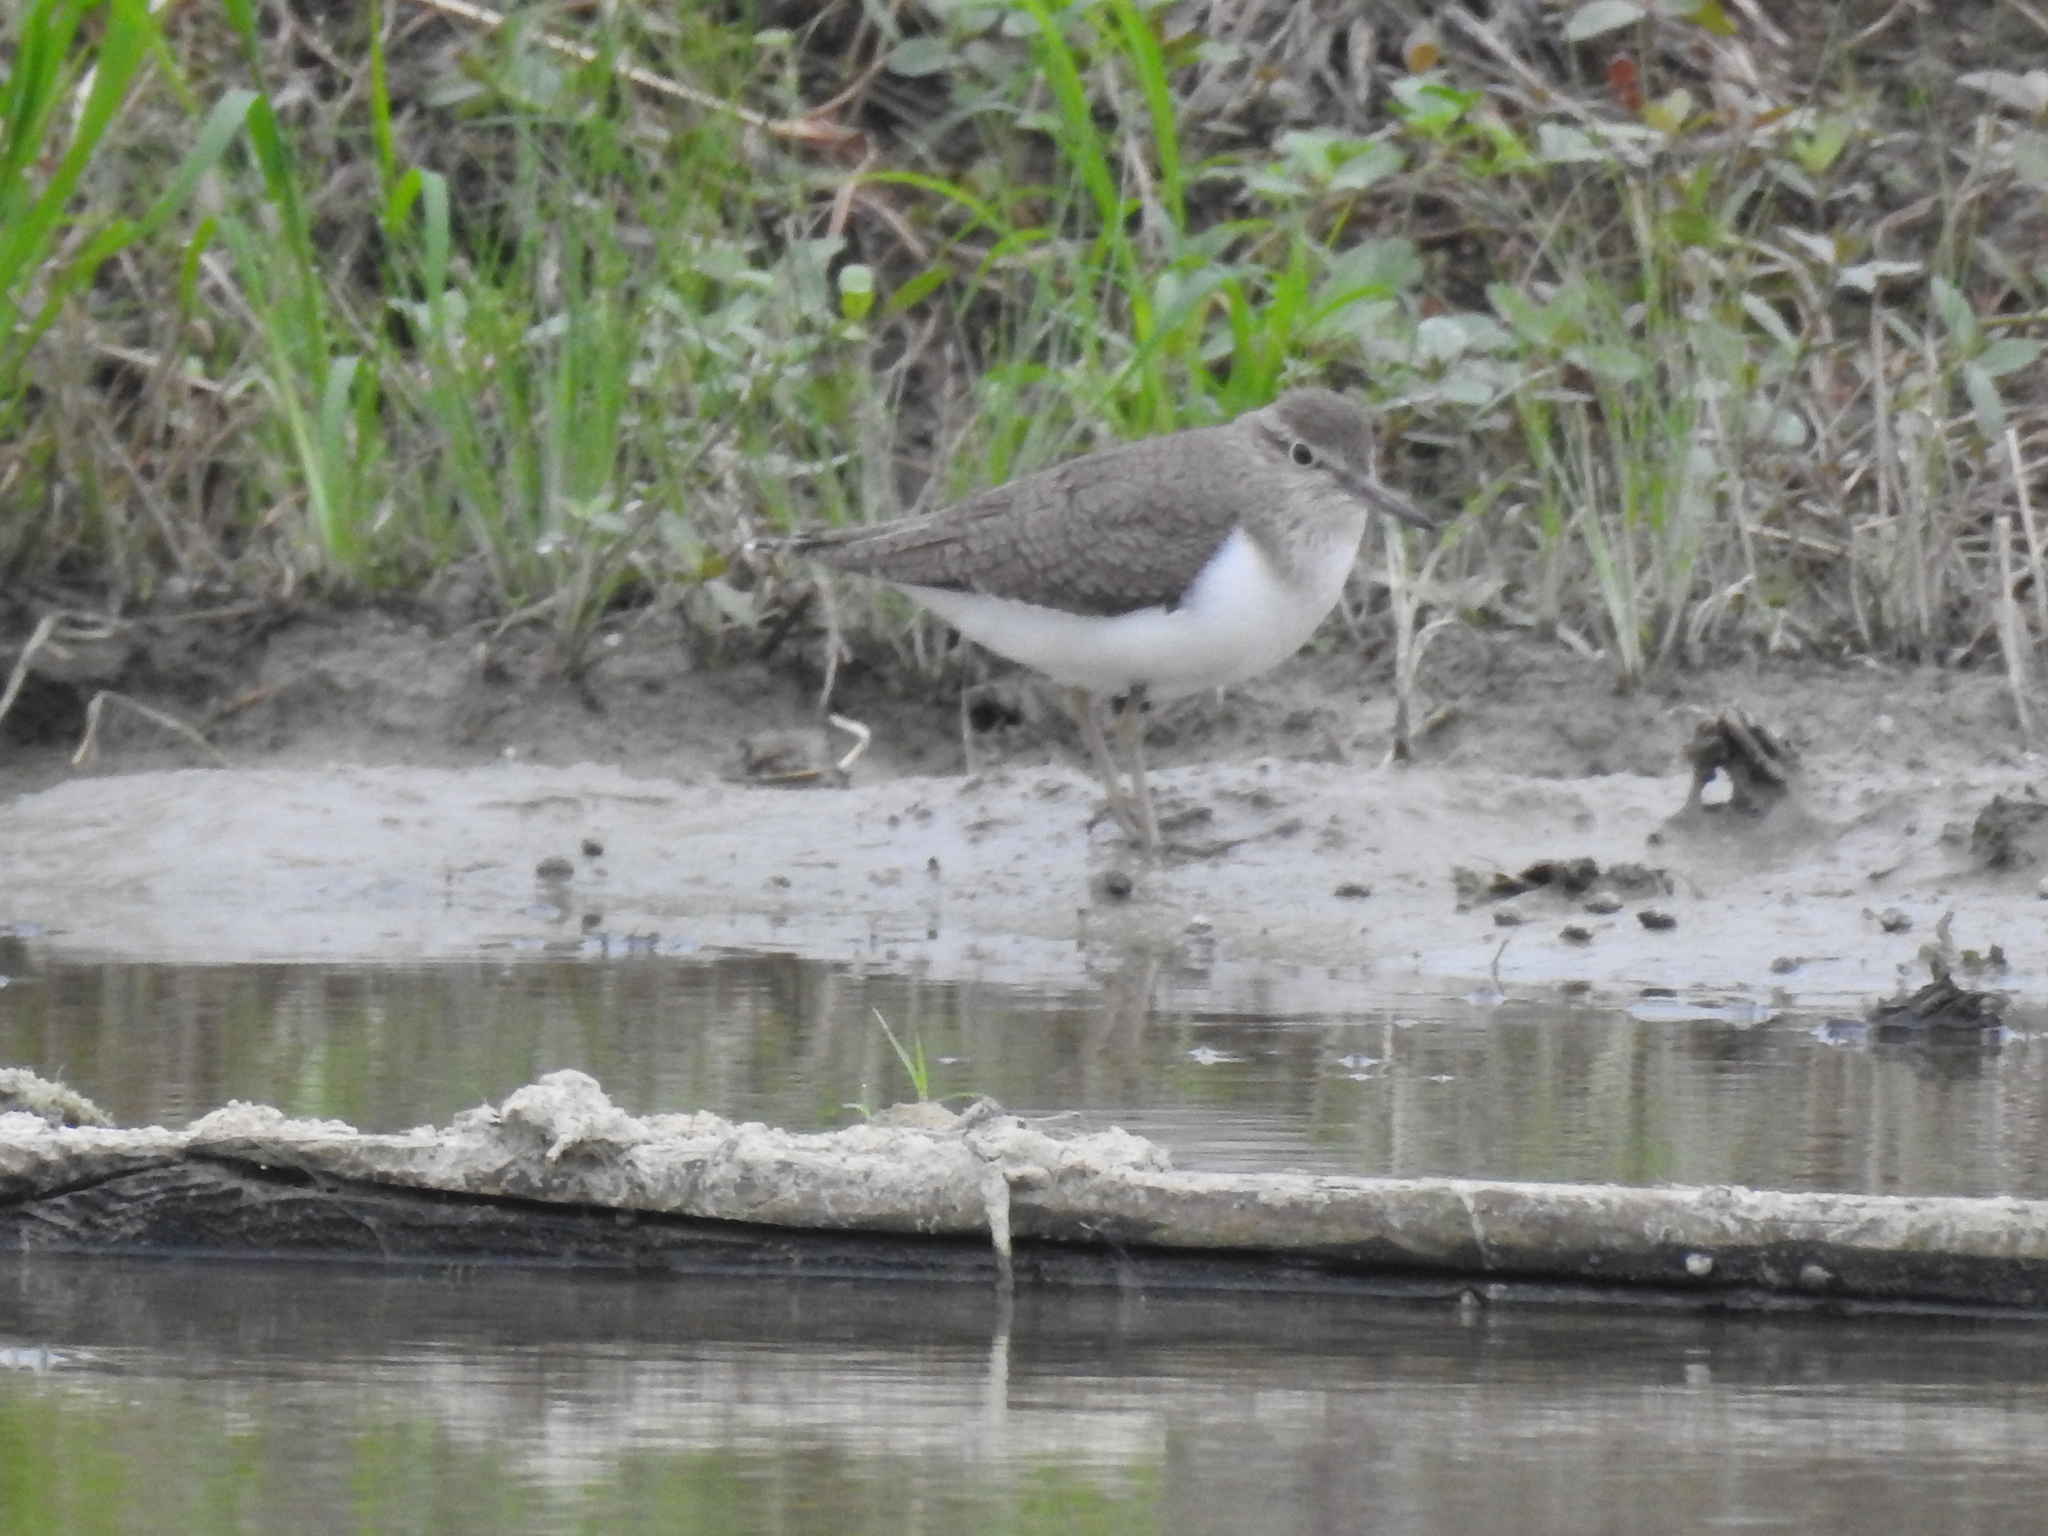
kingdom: Animalia
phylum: Chordata
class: Aves
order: Charadriiformes
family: Scolopacidae
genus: Actitis
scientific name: Actitis hypoleucos
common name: Common sandpiper
